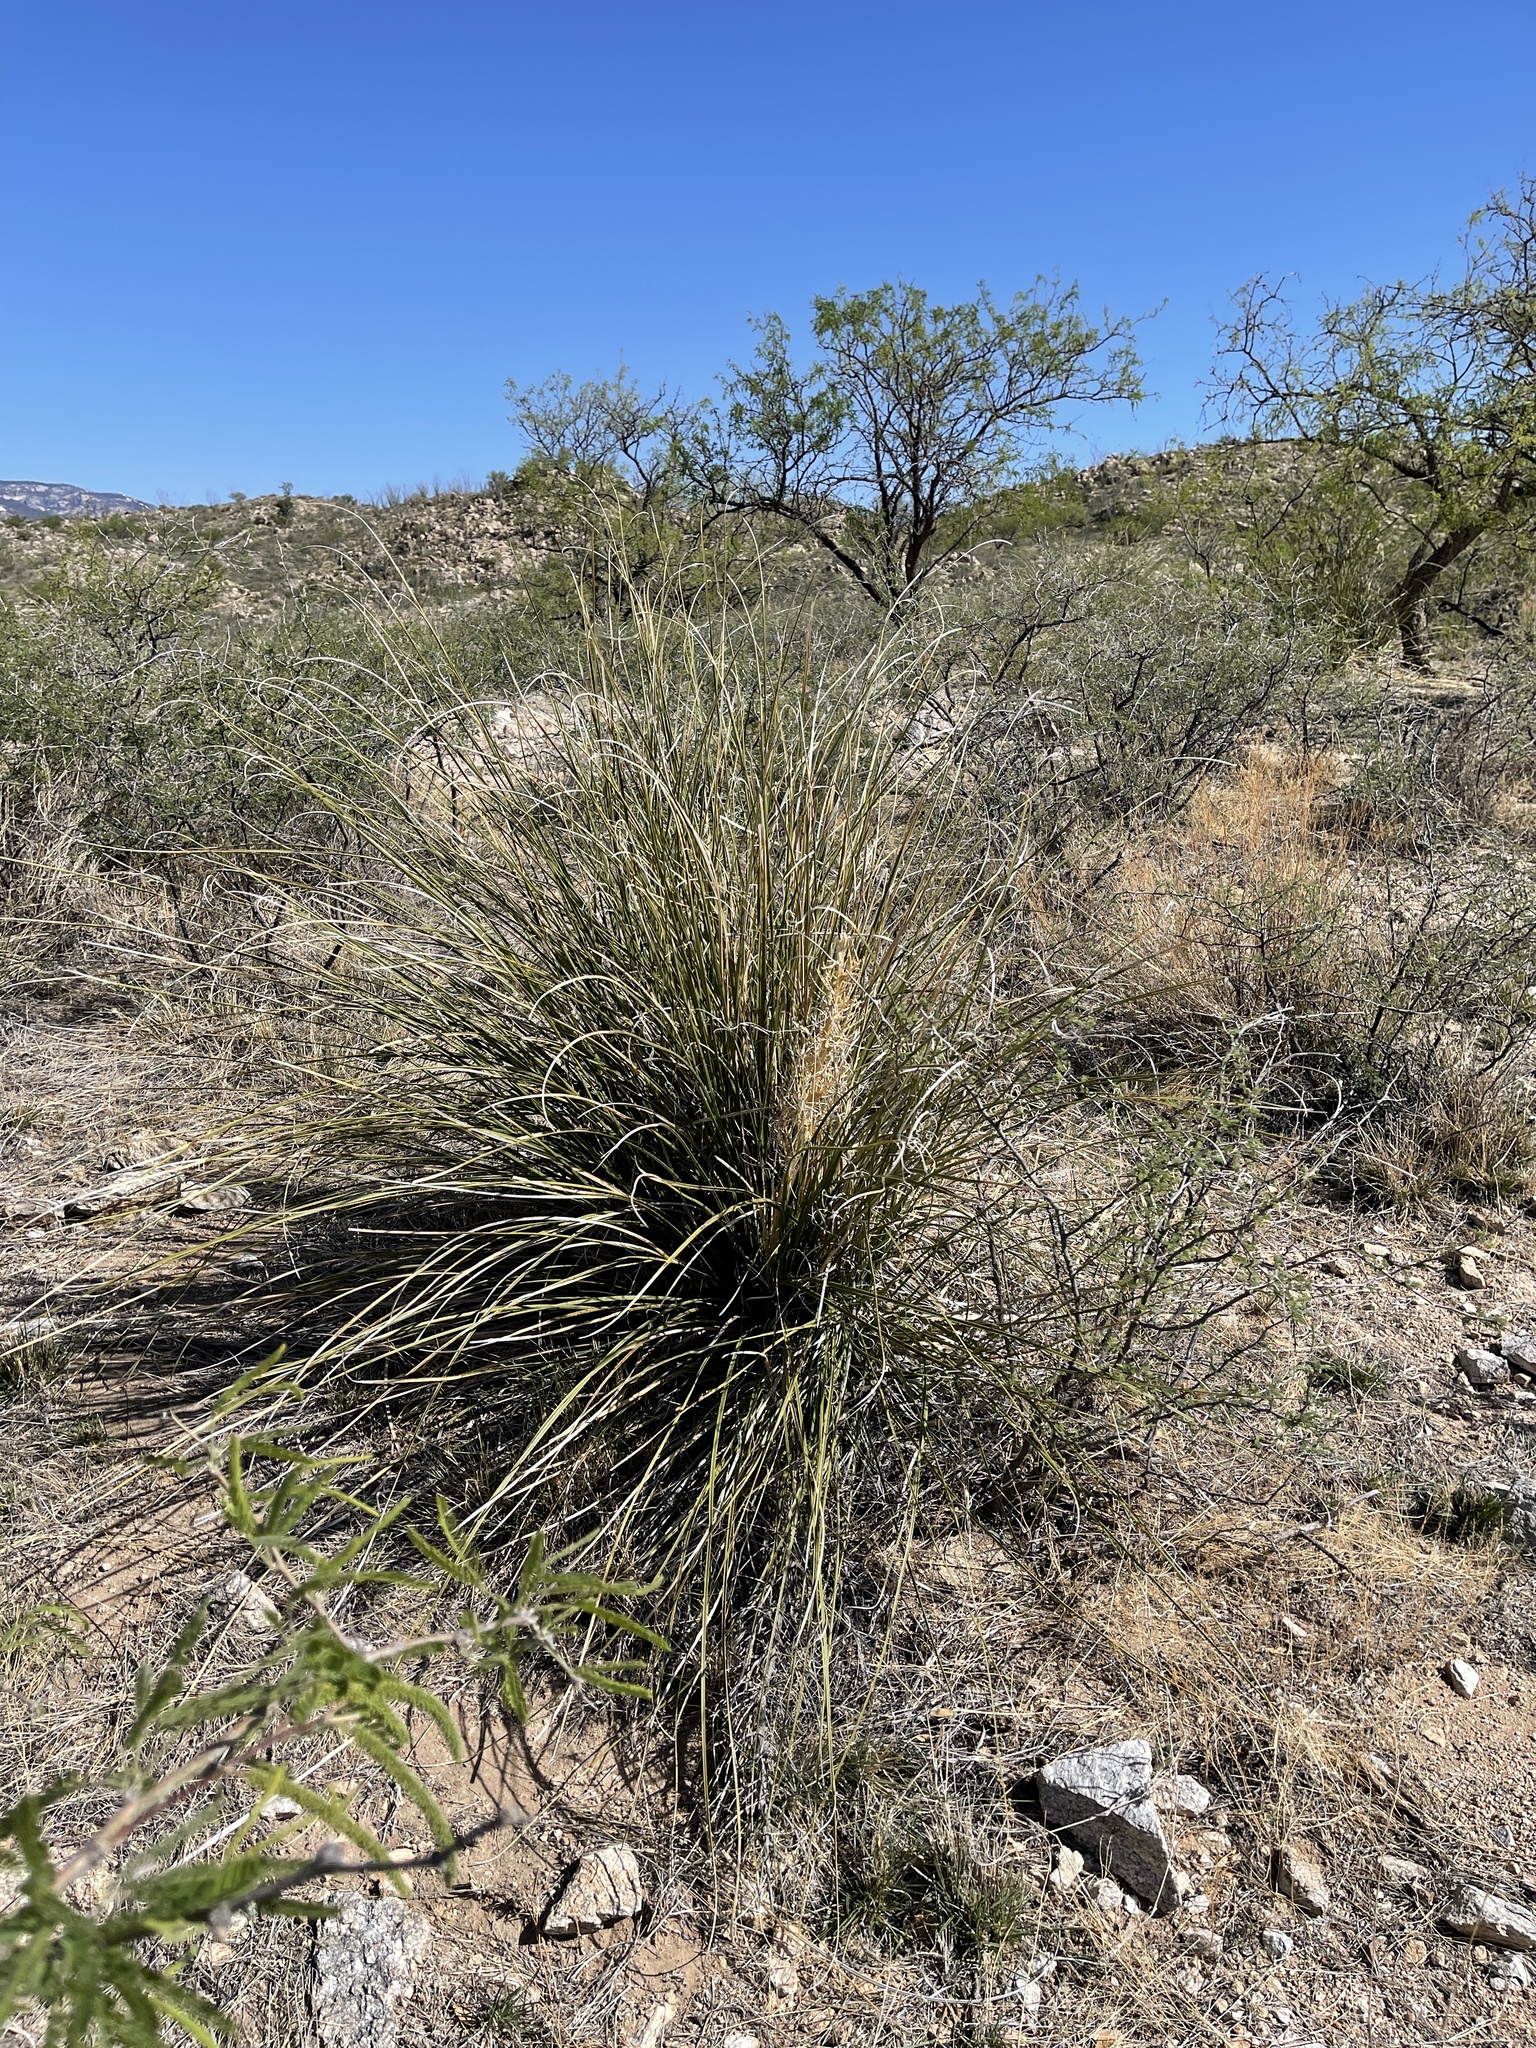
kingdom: Plantae
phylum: Tracheophyta
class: Liliopsida
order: Asparagales
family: Asparagaceae
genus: Nolina
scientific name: Nolina microcarpa
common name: Bear-grass
